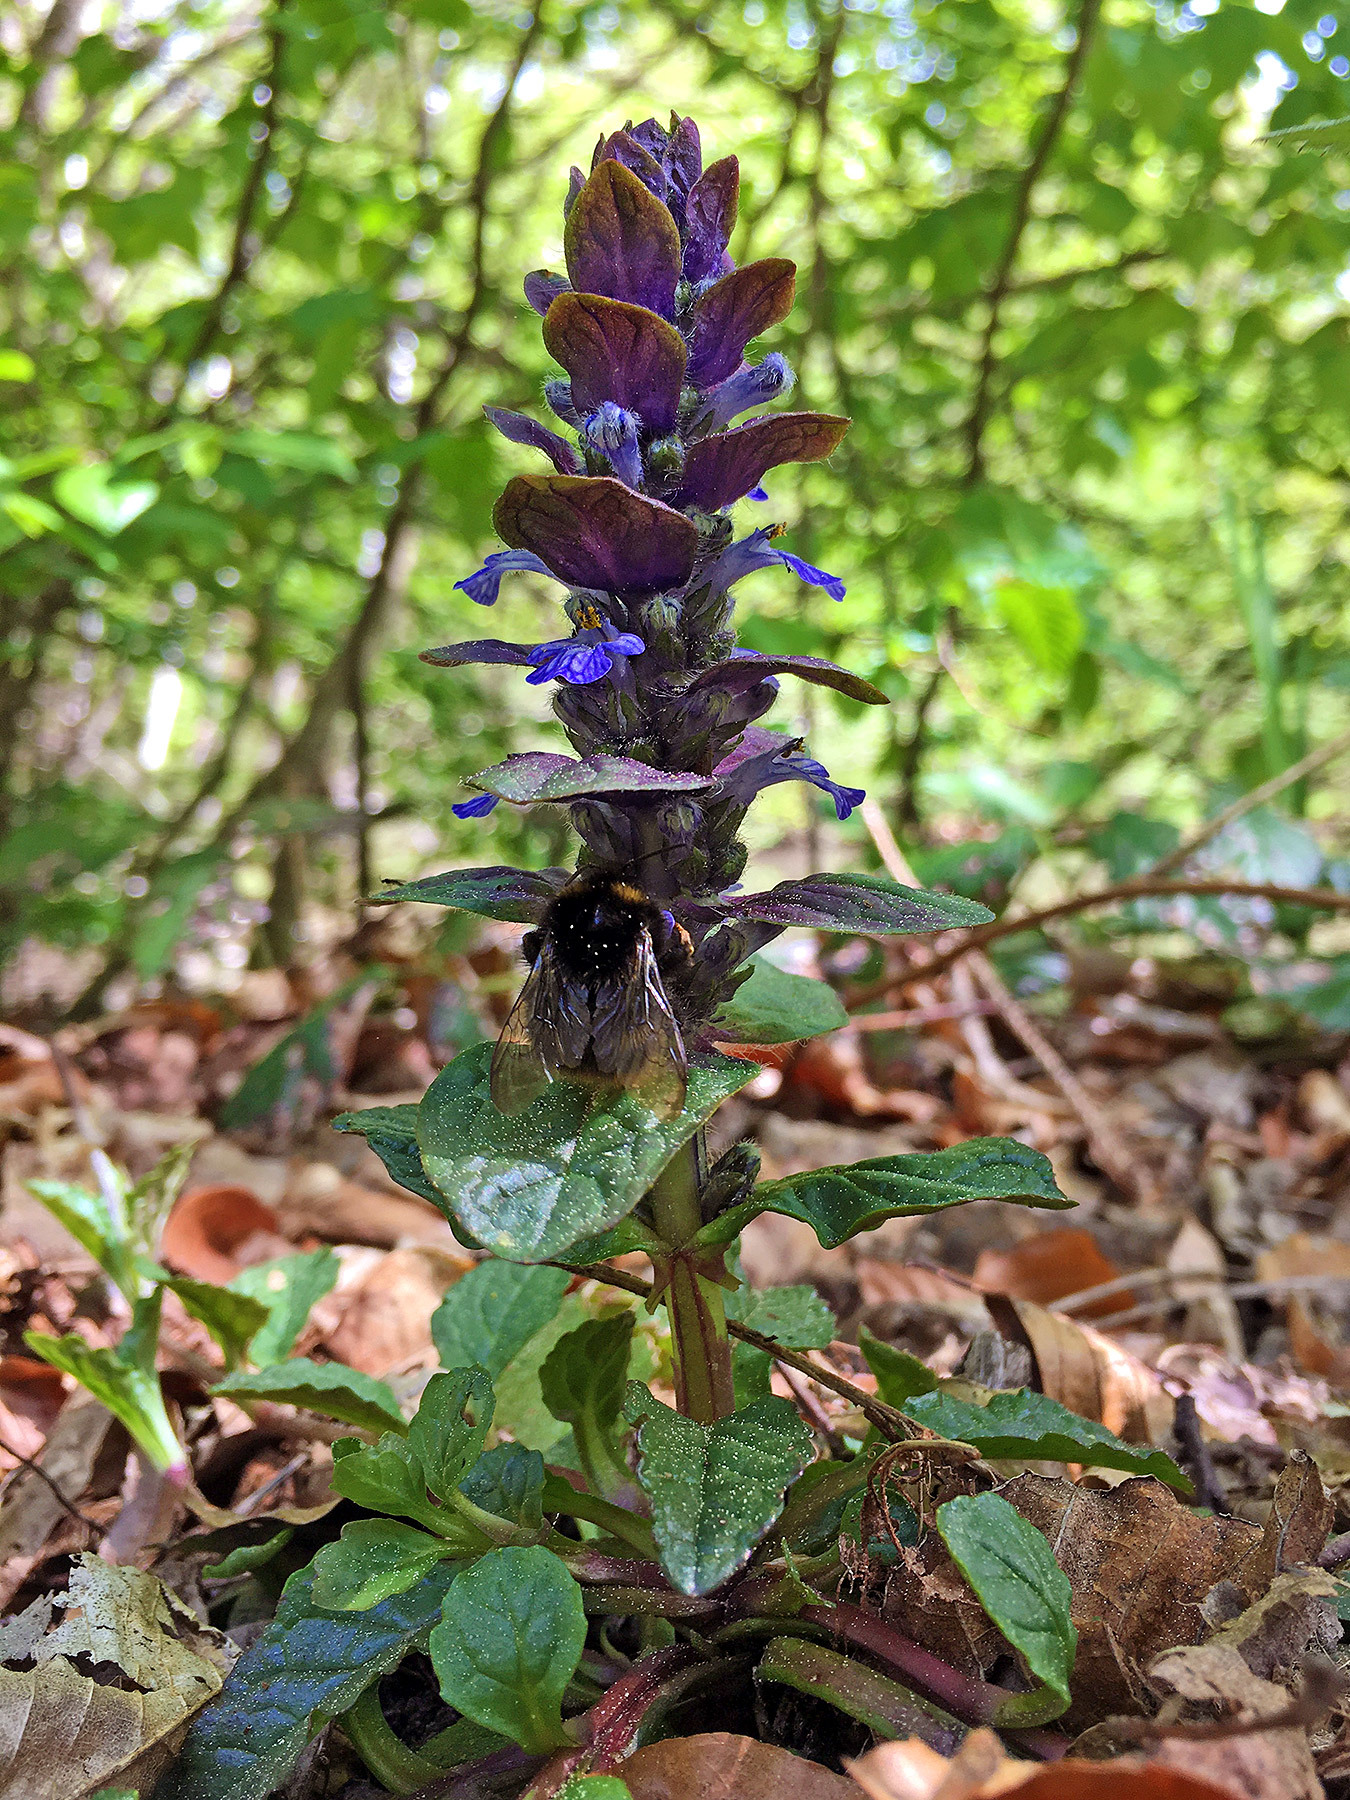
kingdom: Plantae
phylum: Tracheophyta
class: Magnoliopsida
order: Lamiales
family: Lamiaceae
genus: Ajuga
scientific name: Ajuga reptans
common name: Bugle
